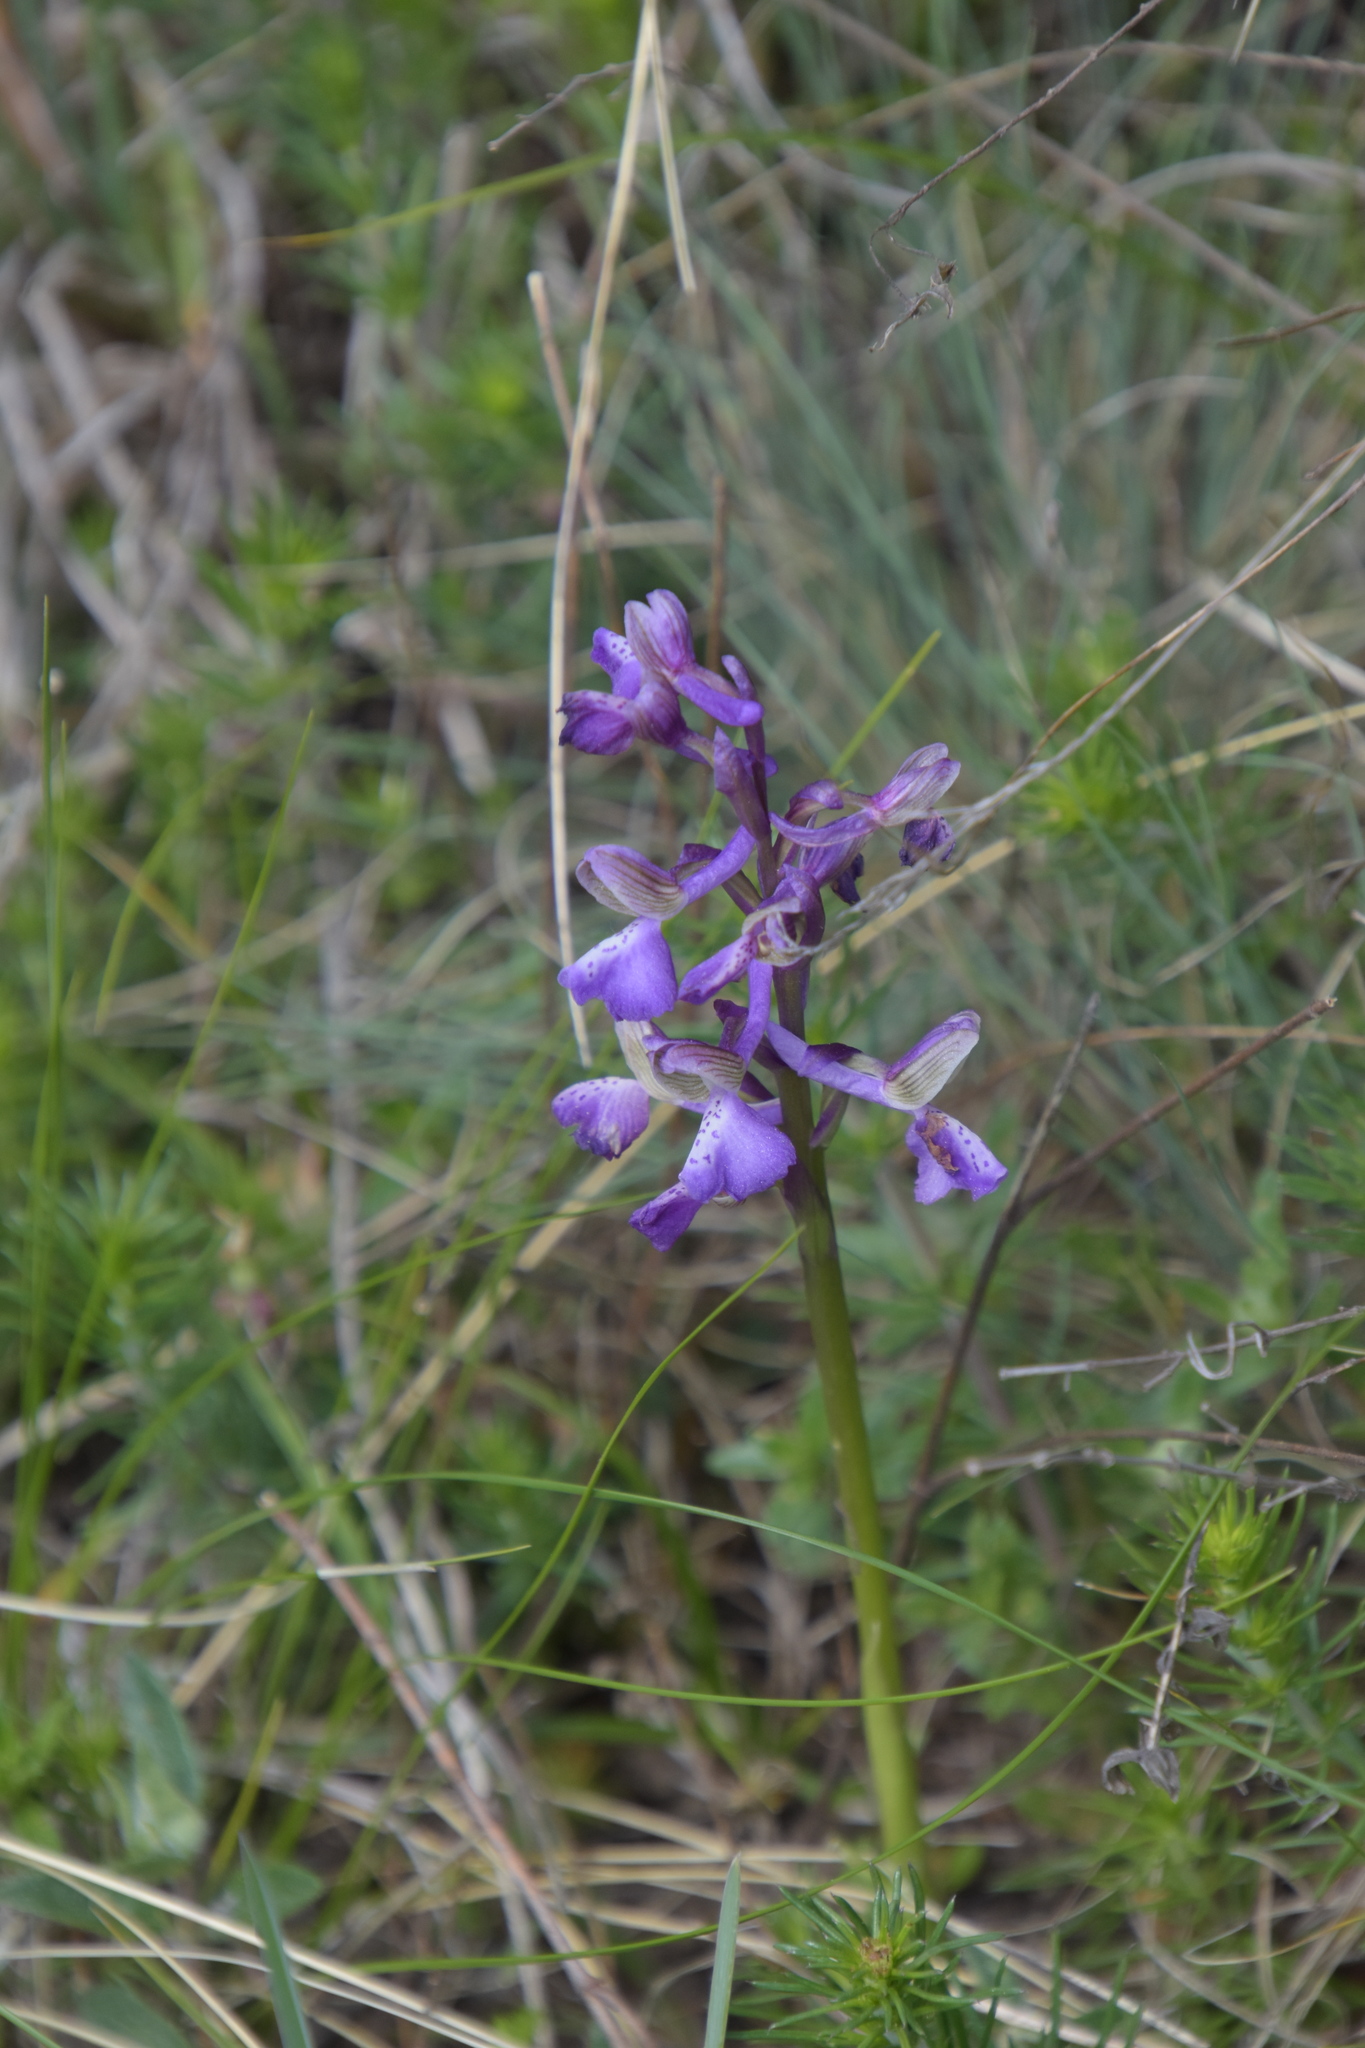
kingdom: Plantae
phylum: Tracheophyta
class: Liliopsida
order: Asparagales
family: Orchidaceae
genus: Anacamptis
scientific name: Anacamptis morio
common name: Green-winged orchid
